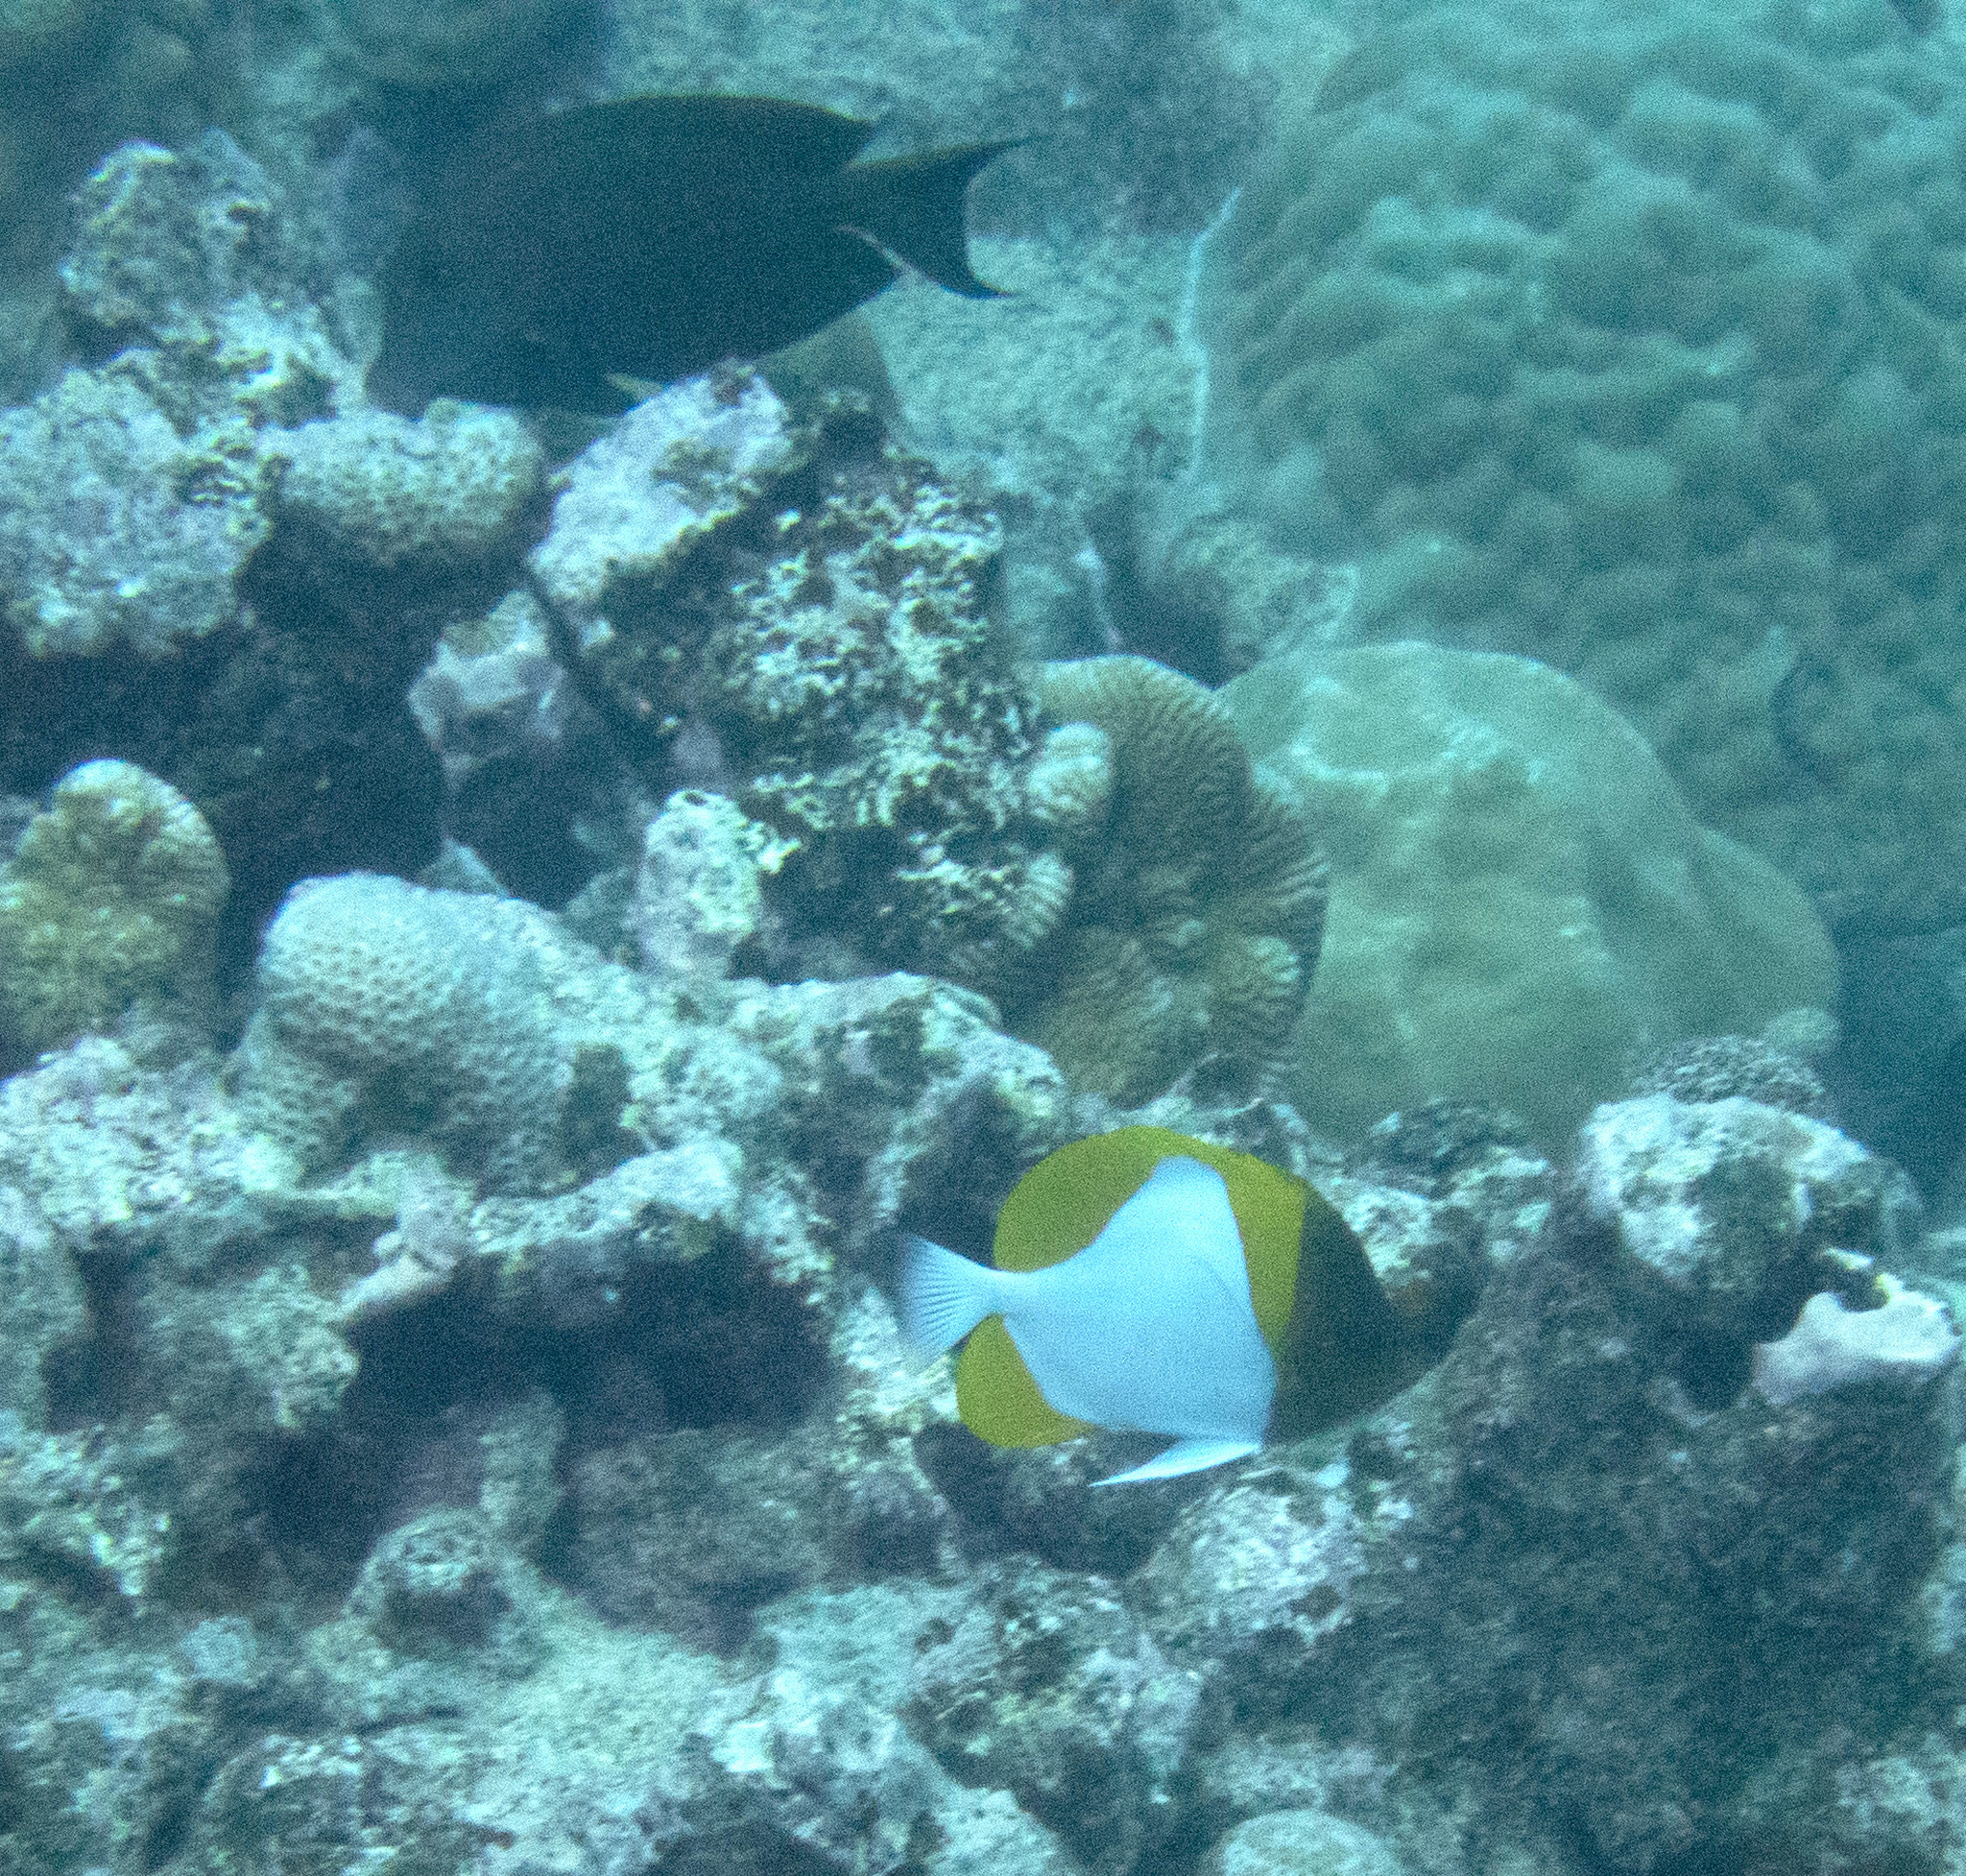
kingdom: Animalia
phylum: Chordata
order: Perciformes
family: Chaetodontidae
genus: Hemitaurichthys
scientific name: Hemitaurichthys polylepis
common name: Brushytoothed butterflyfish
